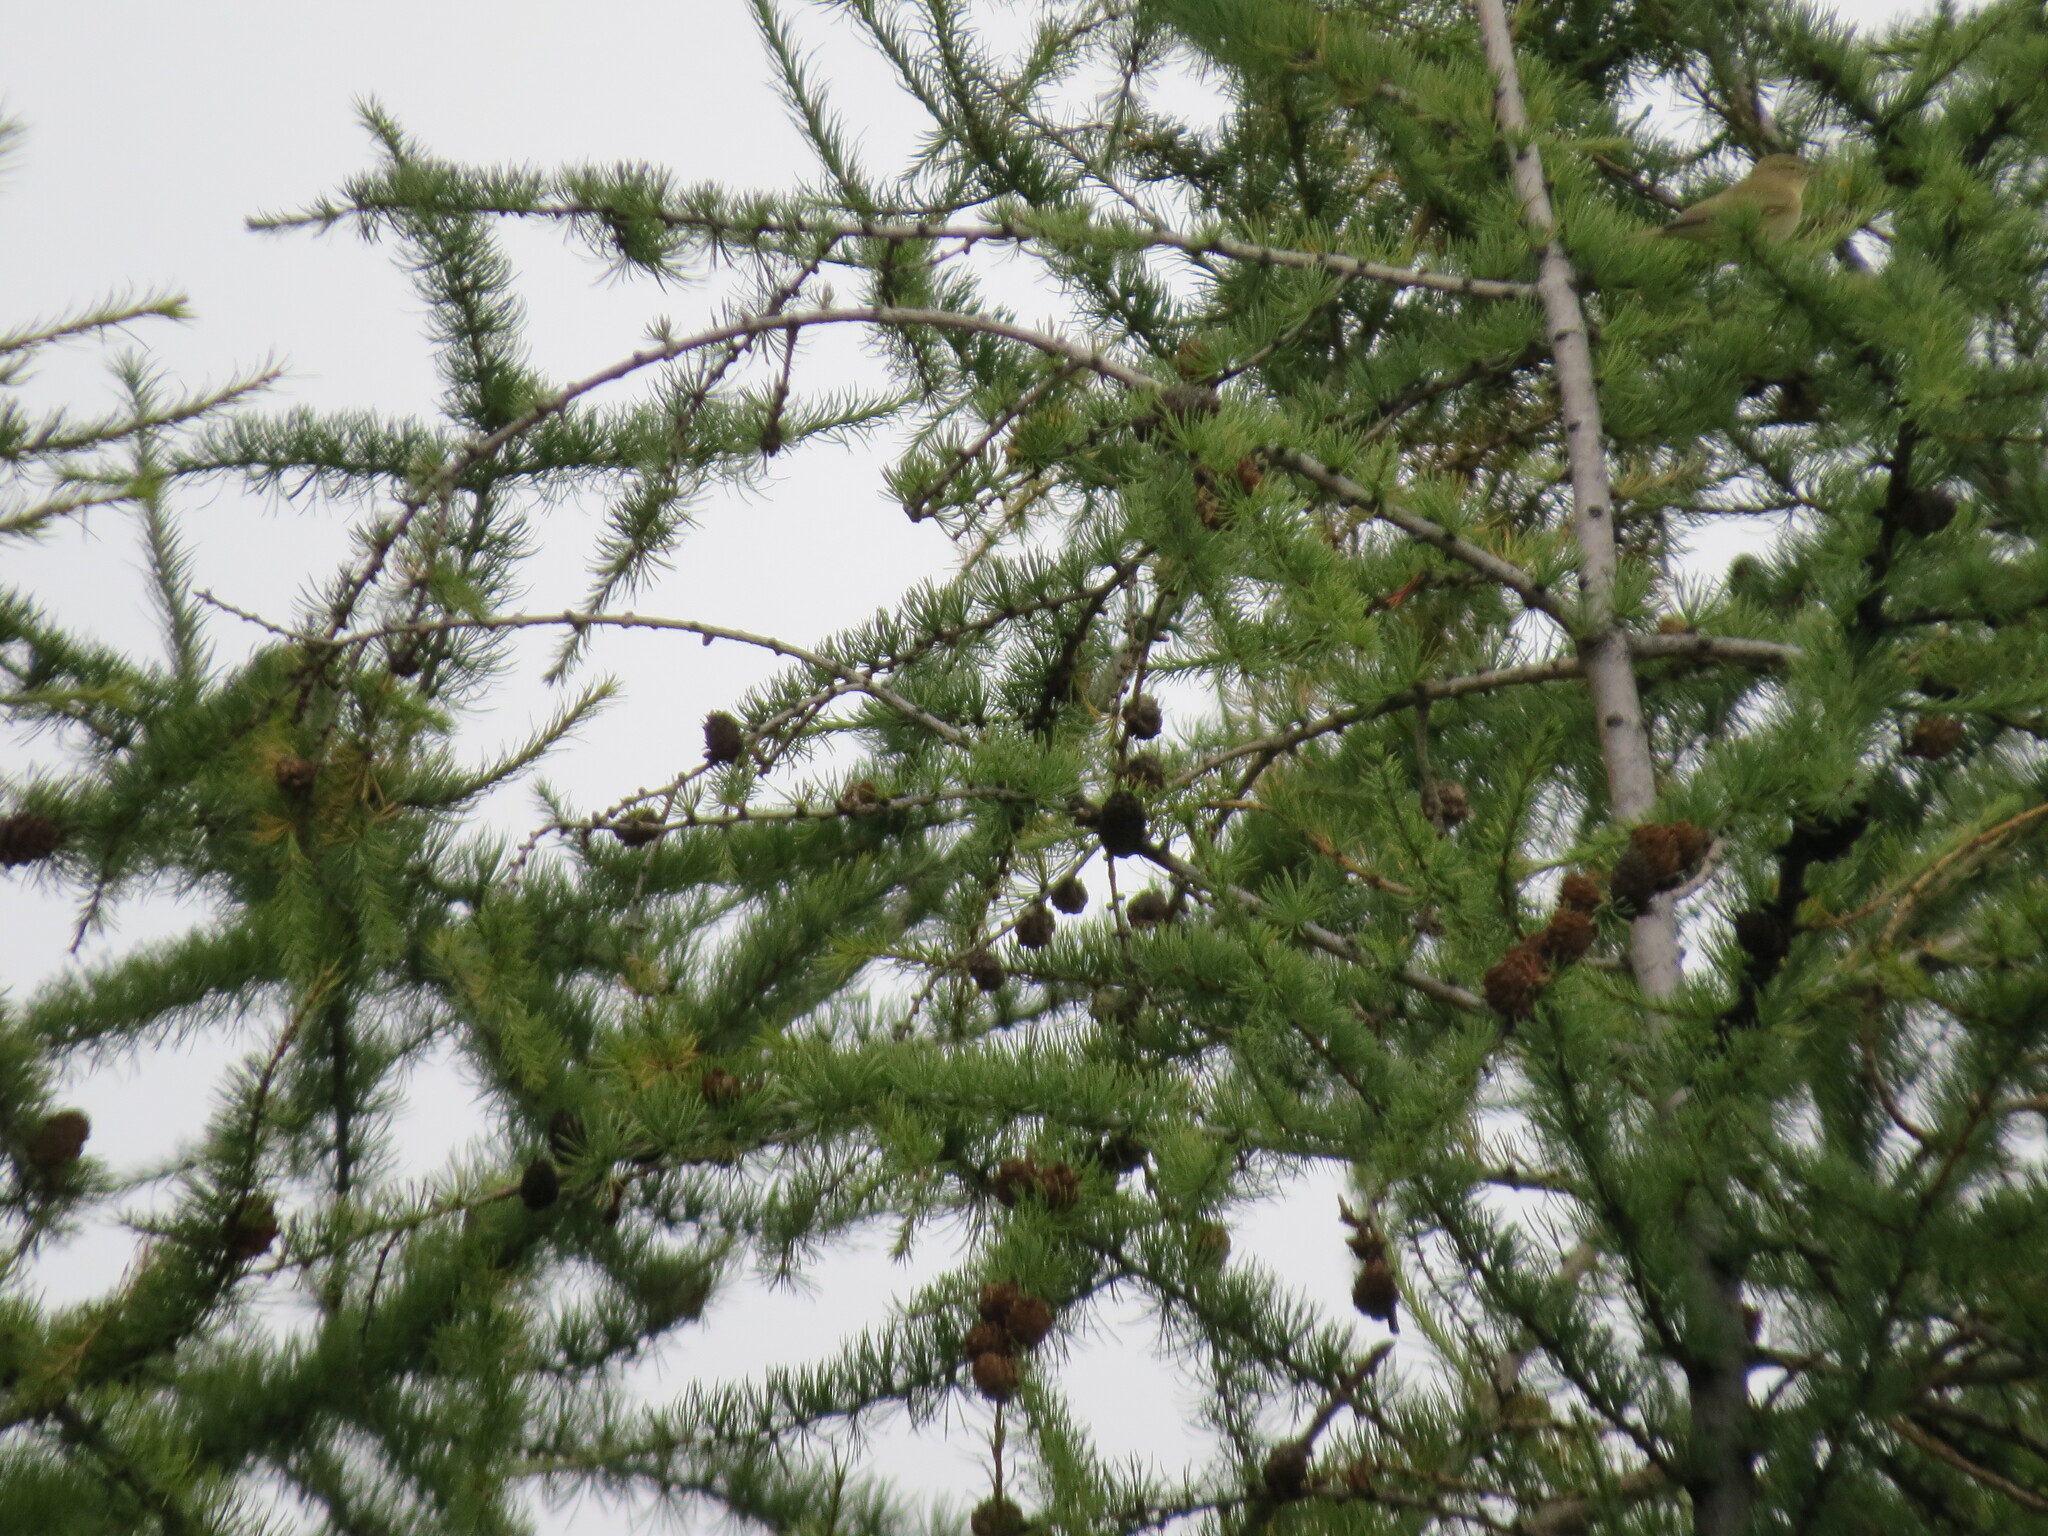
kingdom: Animalia
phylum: Chordata
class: Aves
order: Passeriformes
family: Phylloscopidae
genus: Phylloscopus
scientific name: Phylloscopus collybita
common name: Common chiffchaff
